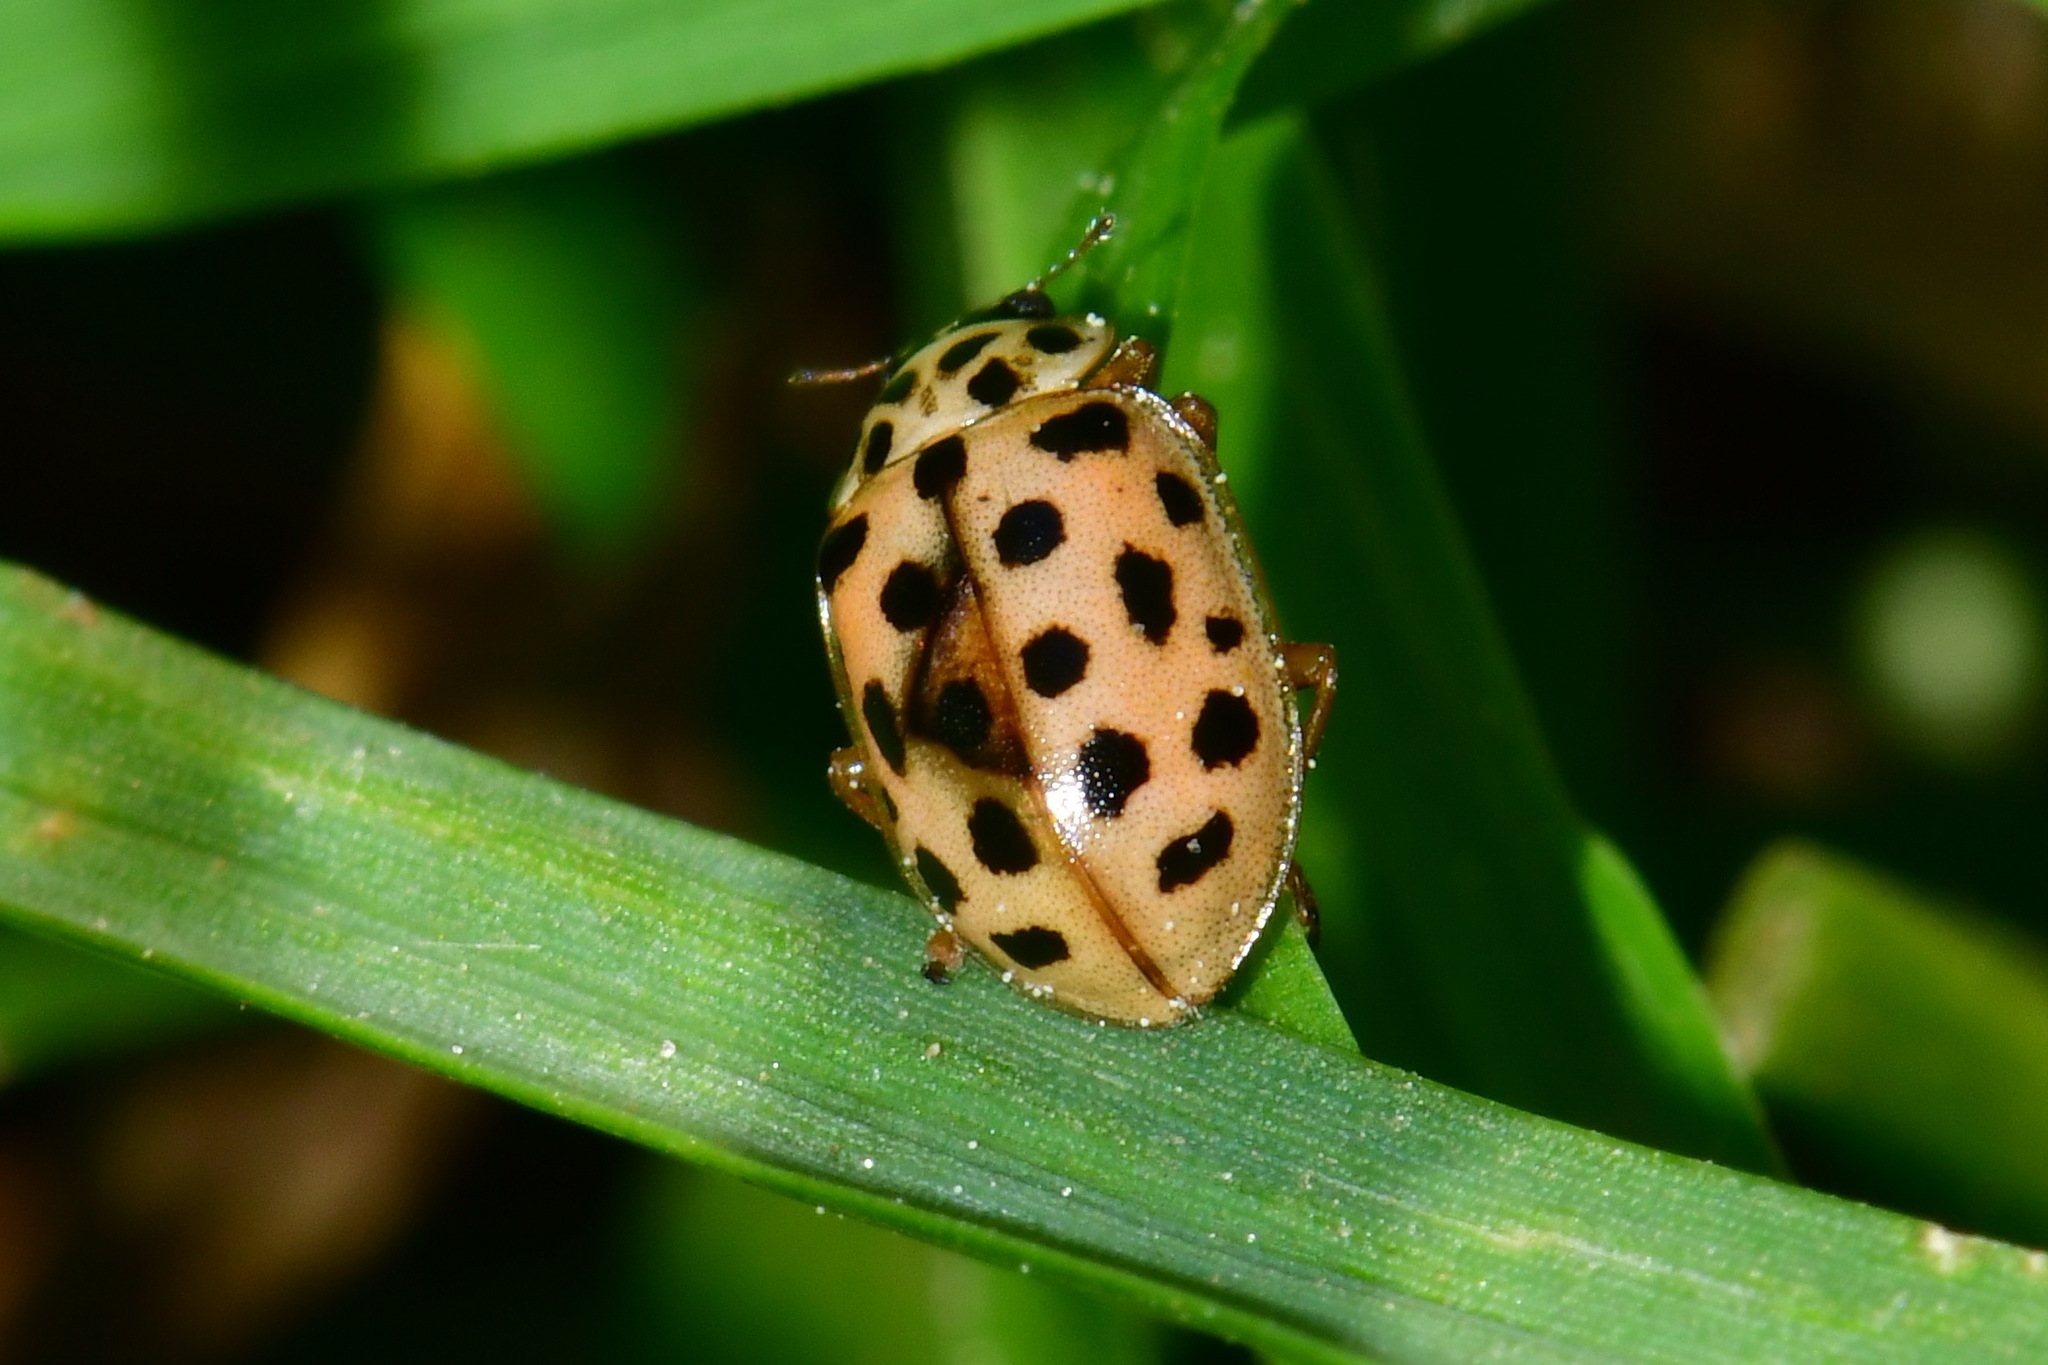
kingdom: Animalia
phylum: Arthropoda
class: Insecta
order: Coleoptera
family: Coccinellidae
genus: Anisosticta
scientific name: Anisosticta novemdecimpunctata
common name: Water ladybird
